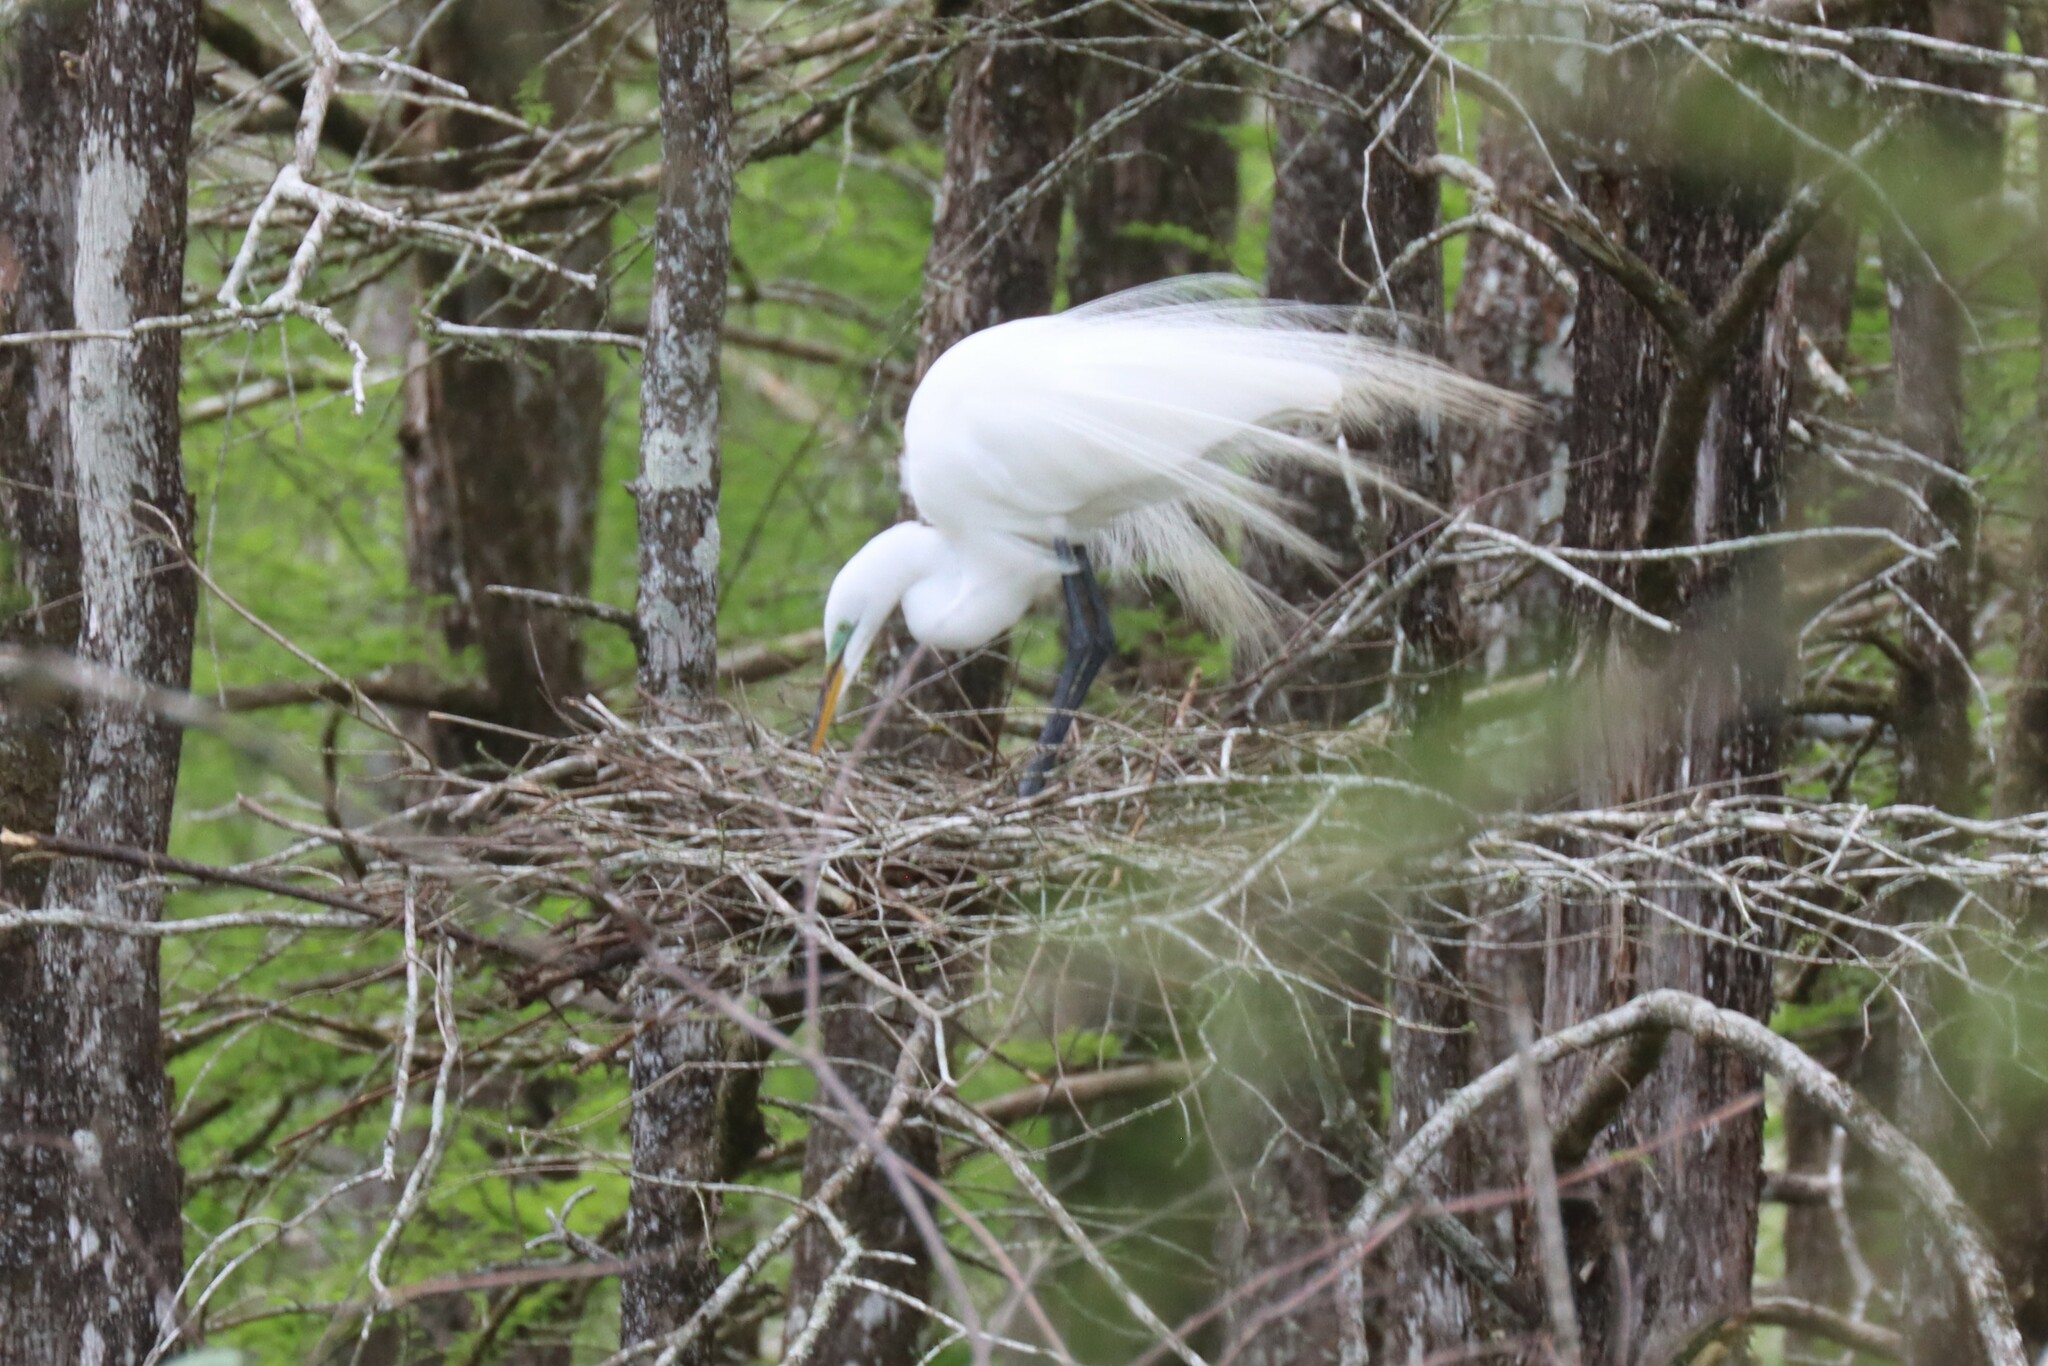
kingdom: Animalia
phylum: Chordata
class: Aves
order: Pelecaniformes
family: Ardeidae
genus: Ardea
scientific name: Ardea alba
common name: Great egret
